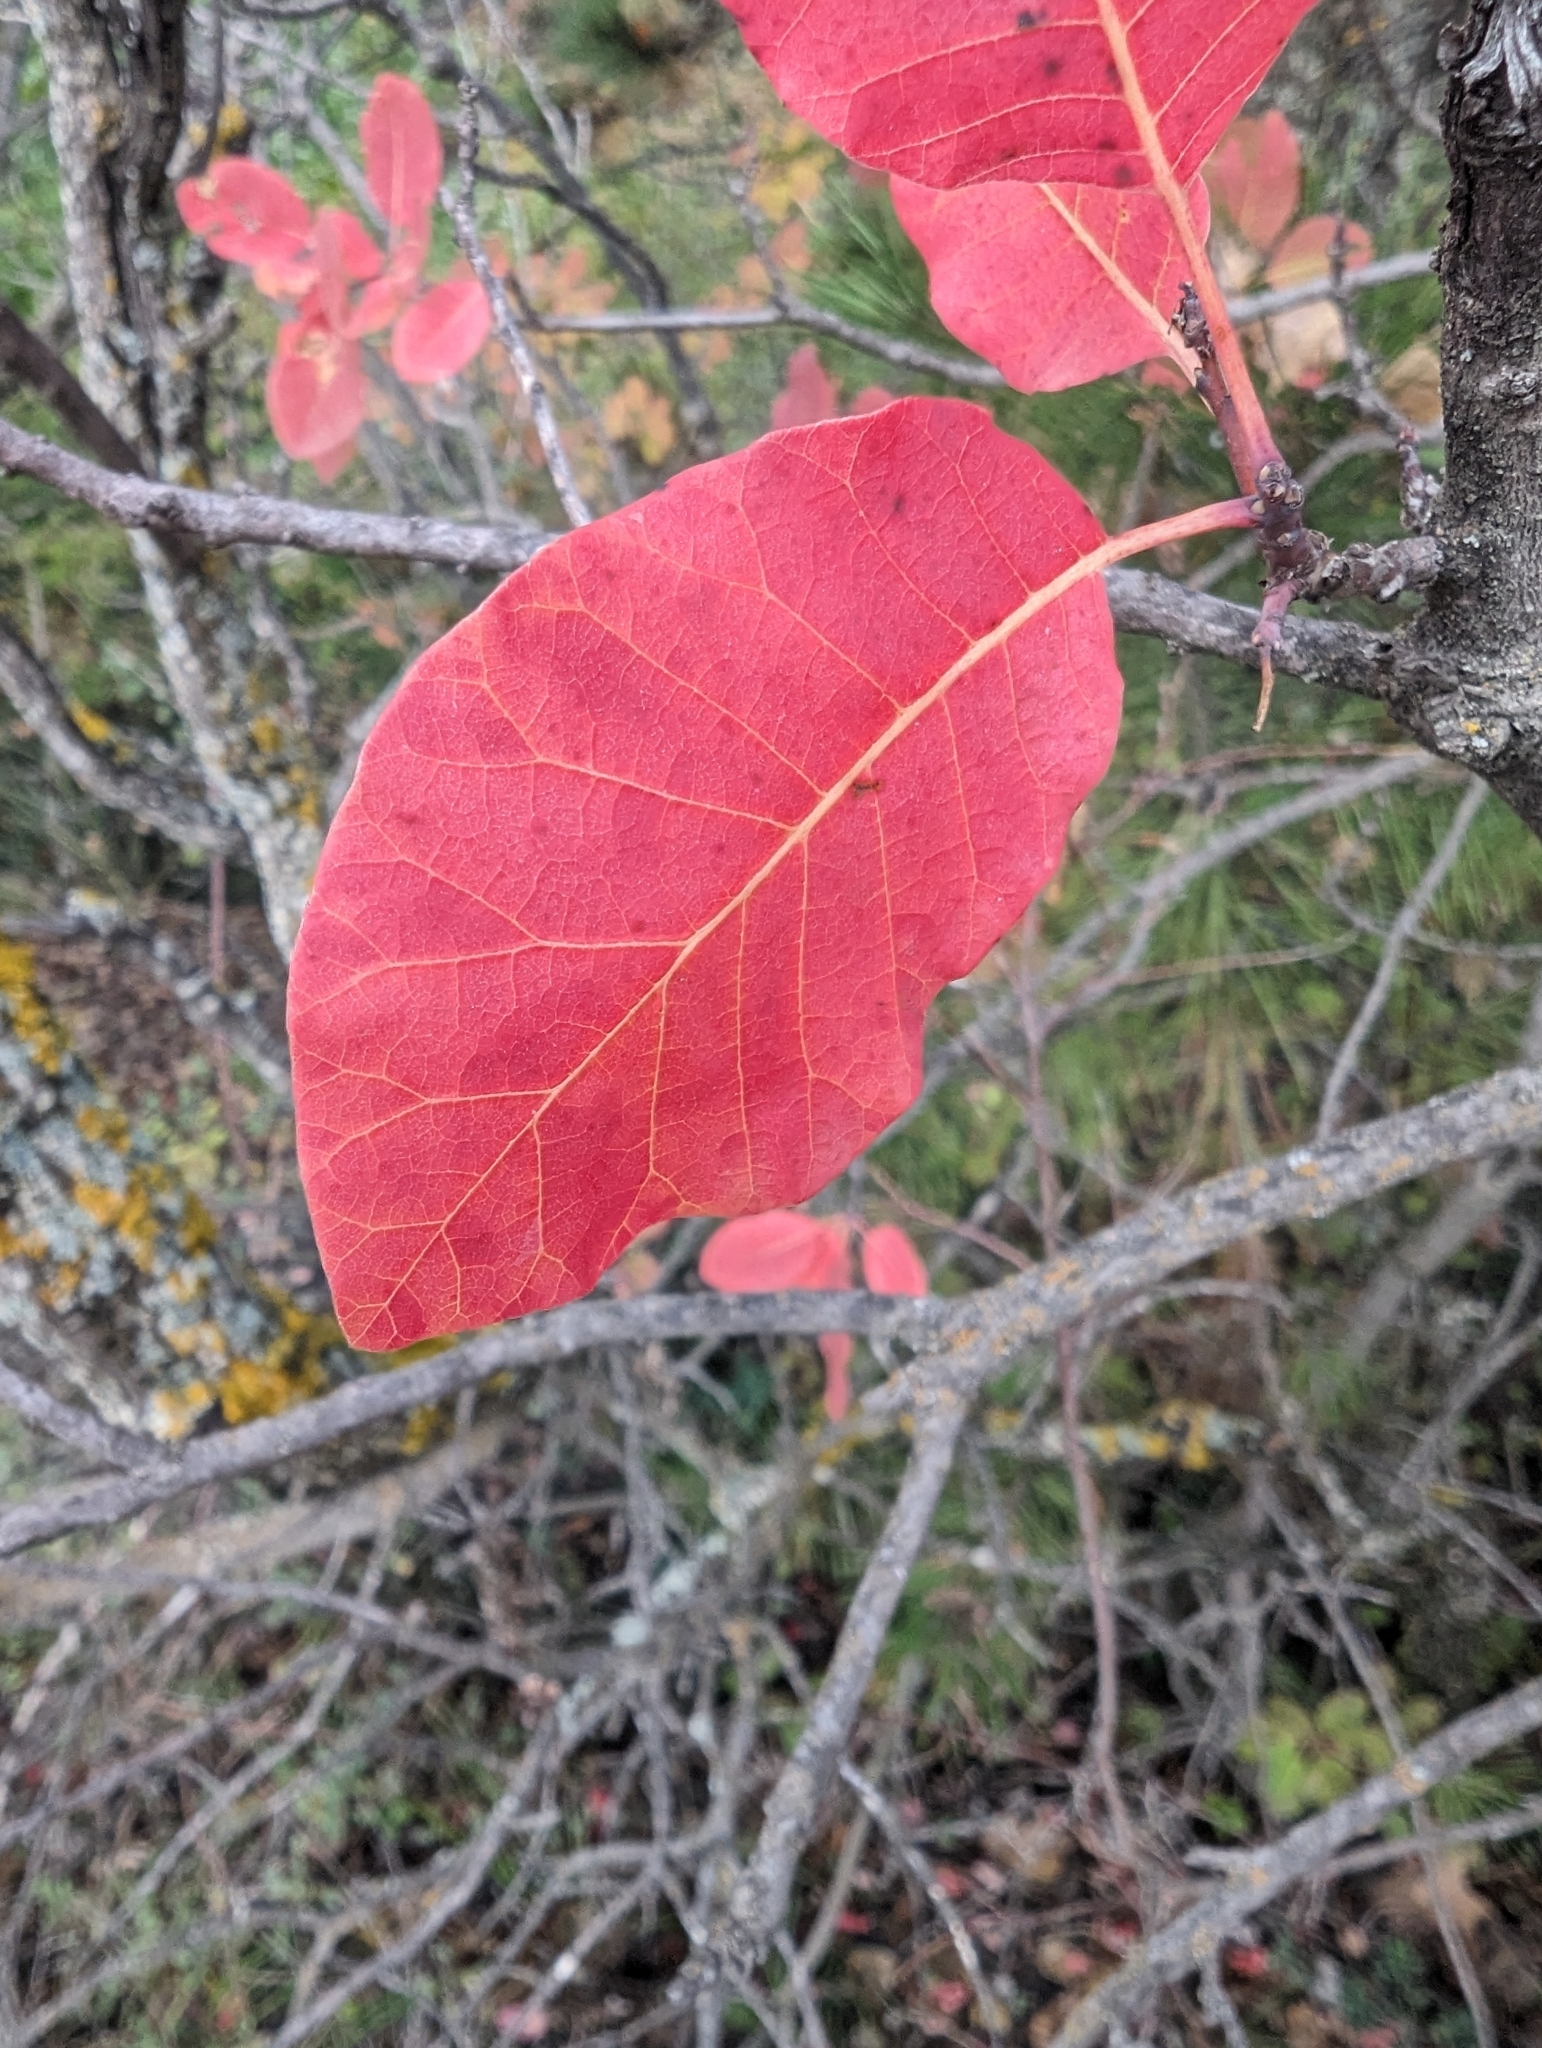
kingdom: Plantae
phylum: Tracheophyta
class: Magnoliopsida
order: Sapindales
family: Anacardiaceae
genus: Cotinus
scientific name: Cotinus coggygria
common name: Smoke-tree
